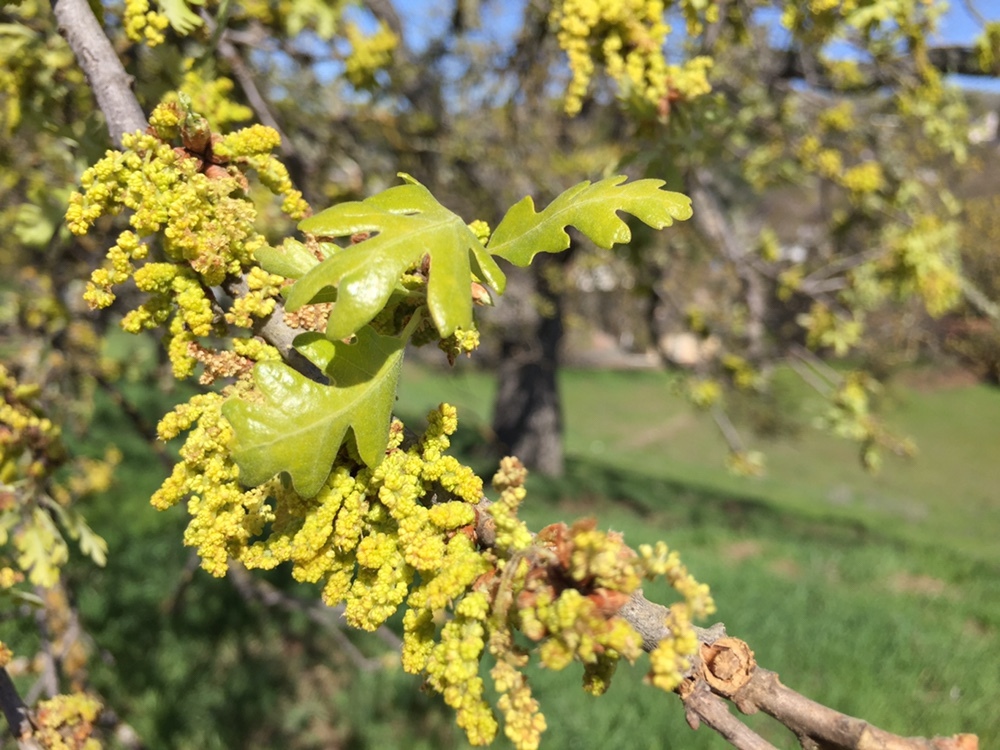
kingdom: Plantae
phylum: Tracheophyta
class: Magnoliopsida
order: Fagales
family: Fagaceae
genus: Quercus
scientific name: Quercus lobata
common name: Valley oak
